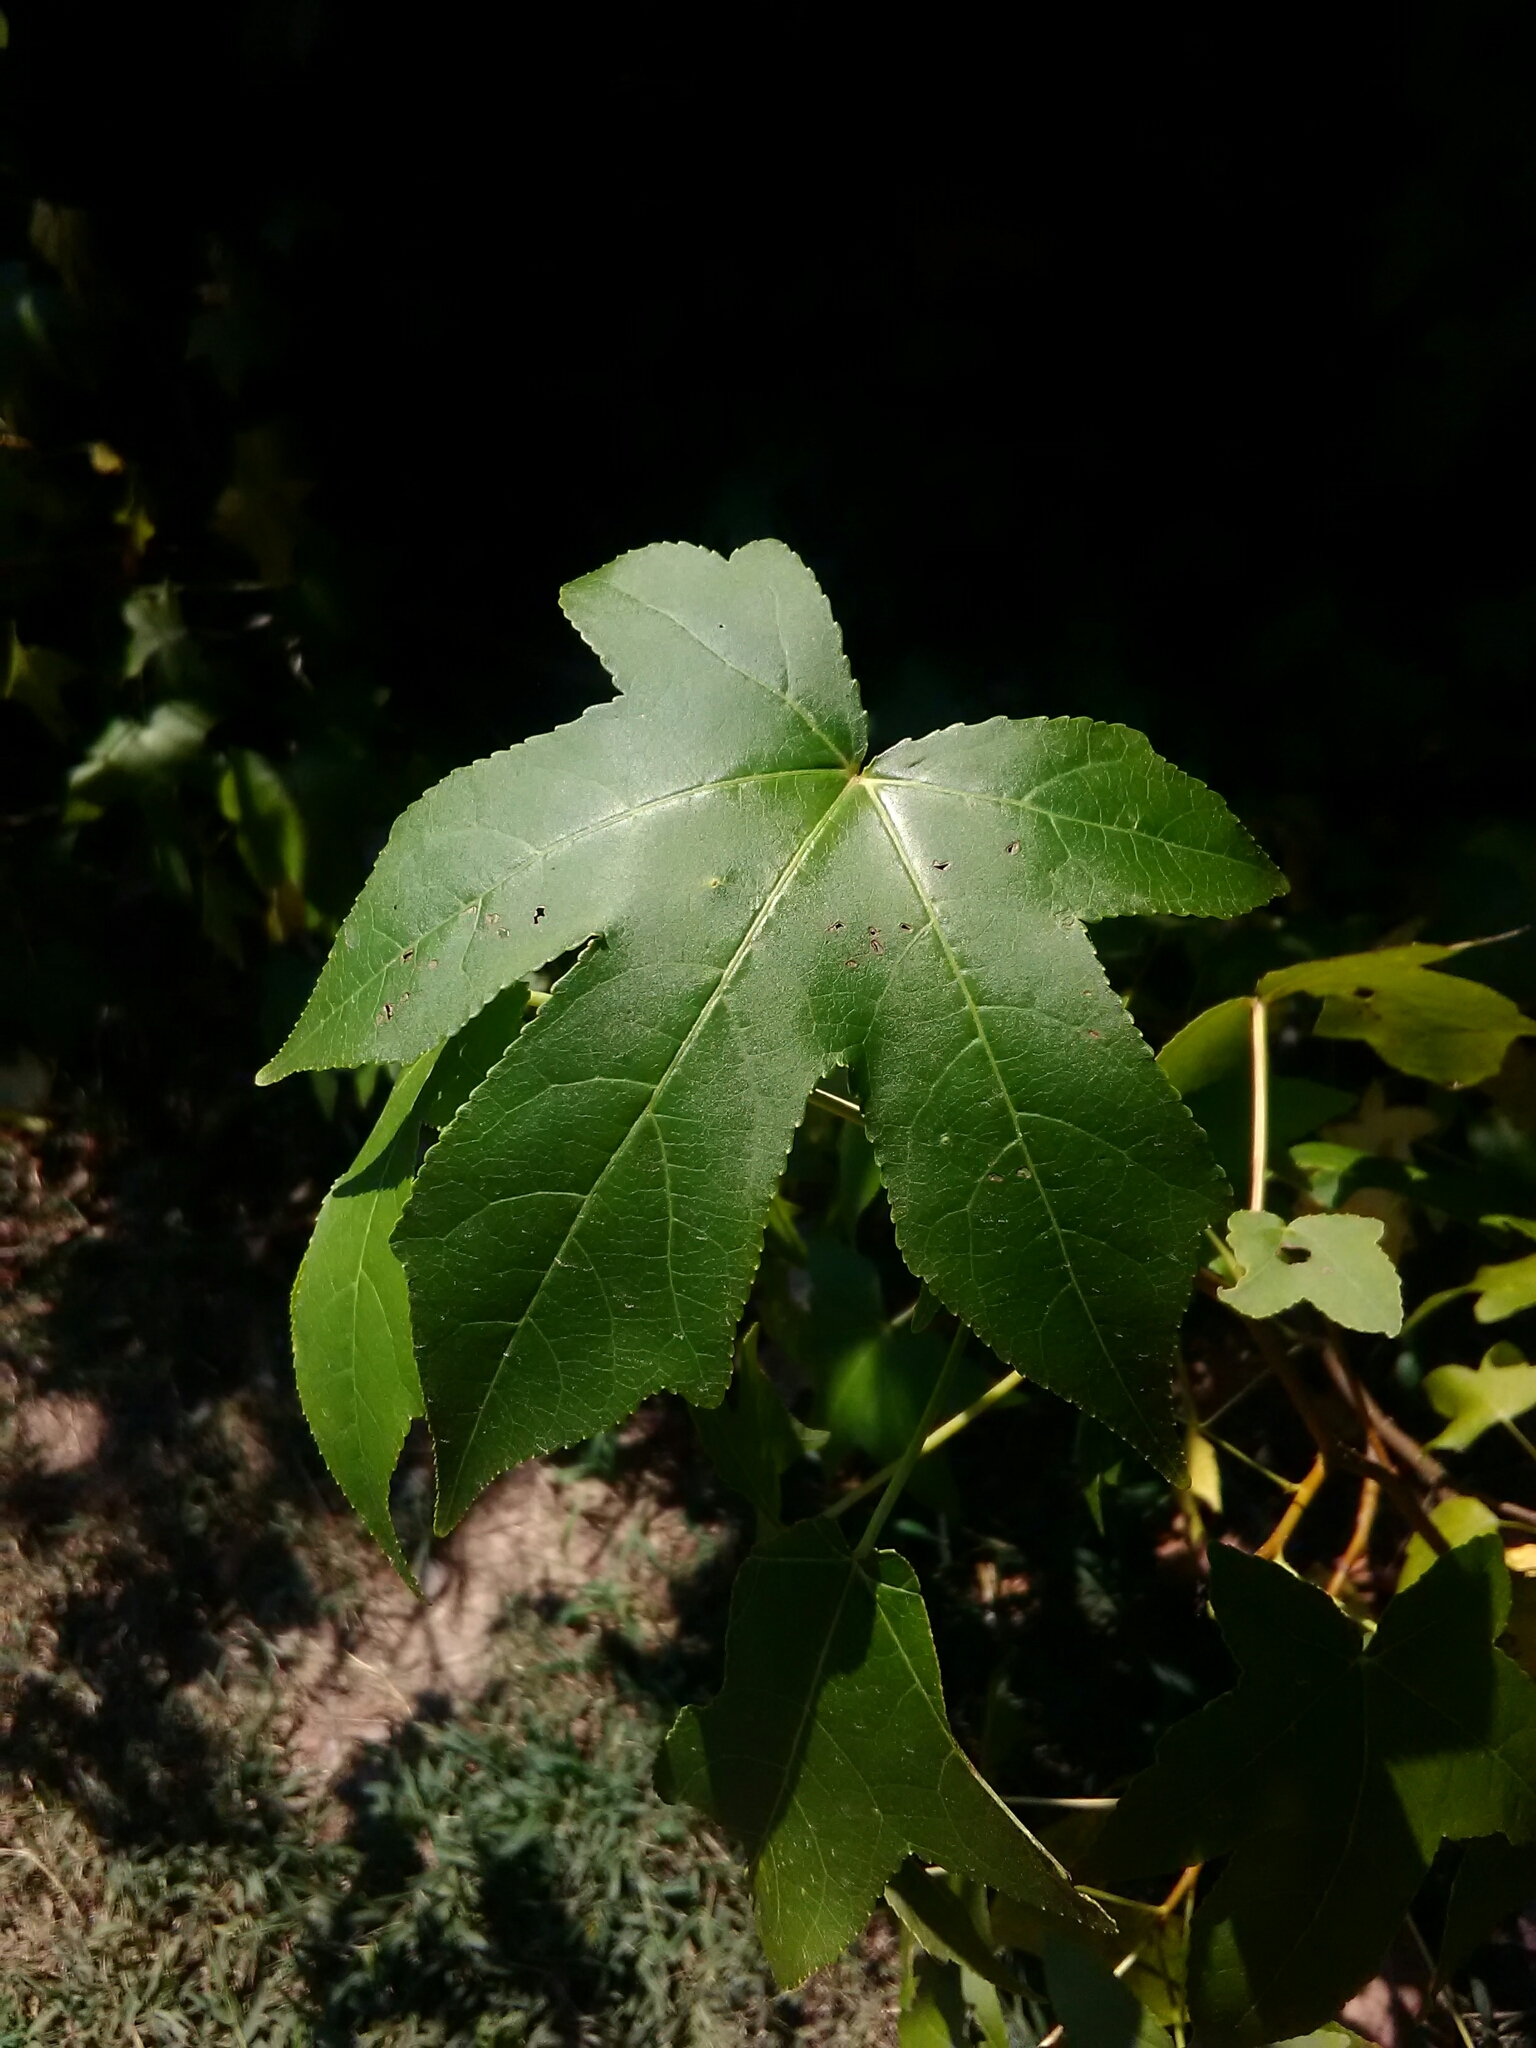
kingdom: Plantae
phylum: Tracheophyta
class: Magnoliopsida
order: Saxifragales
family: Altingiaceae
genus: Liquidambar
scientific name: Liquidambar styraciflua
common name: Sweet gum
